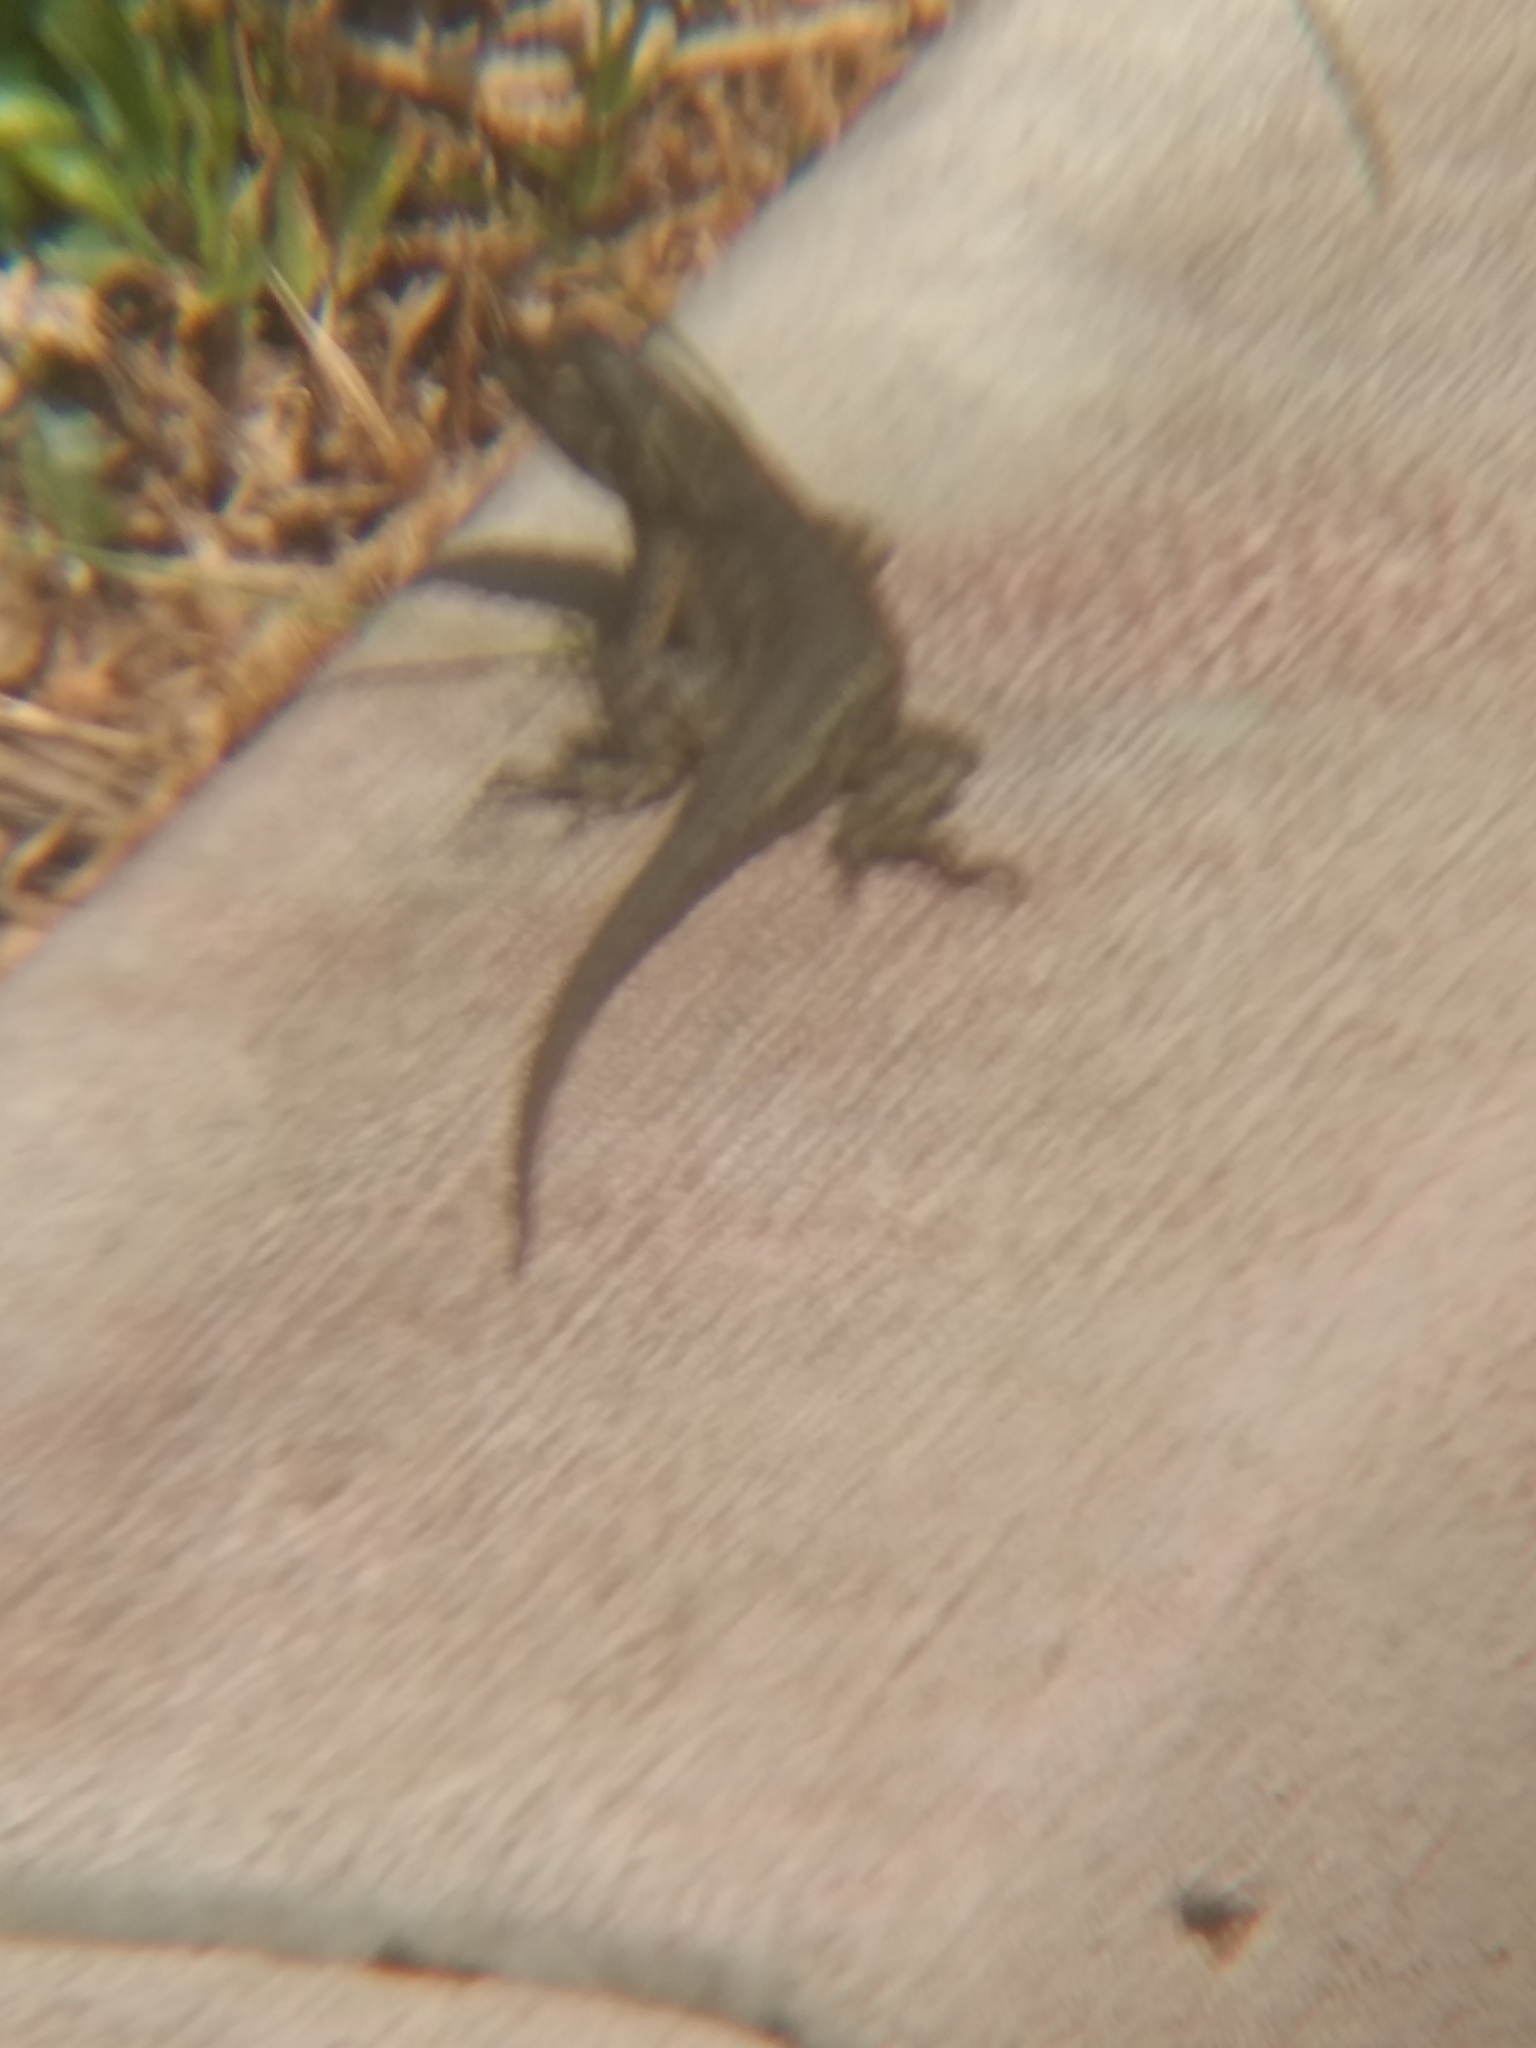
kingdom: Animalia
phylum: Chordata
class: Squamata
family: Phrynosomatidae
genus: Sceloporus
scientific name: Sceloporus occidentalis
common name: Western fence lizard
